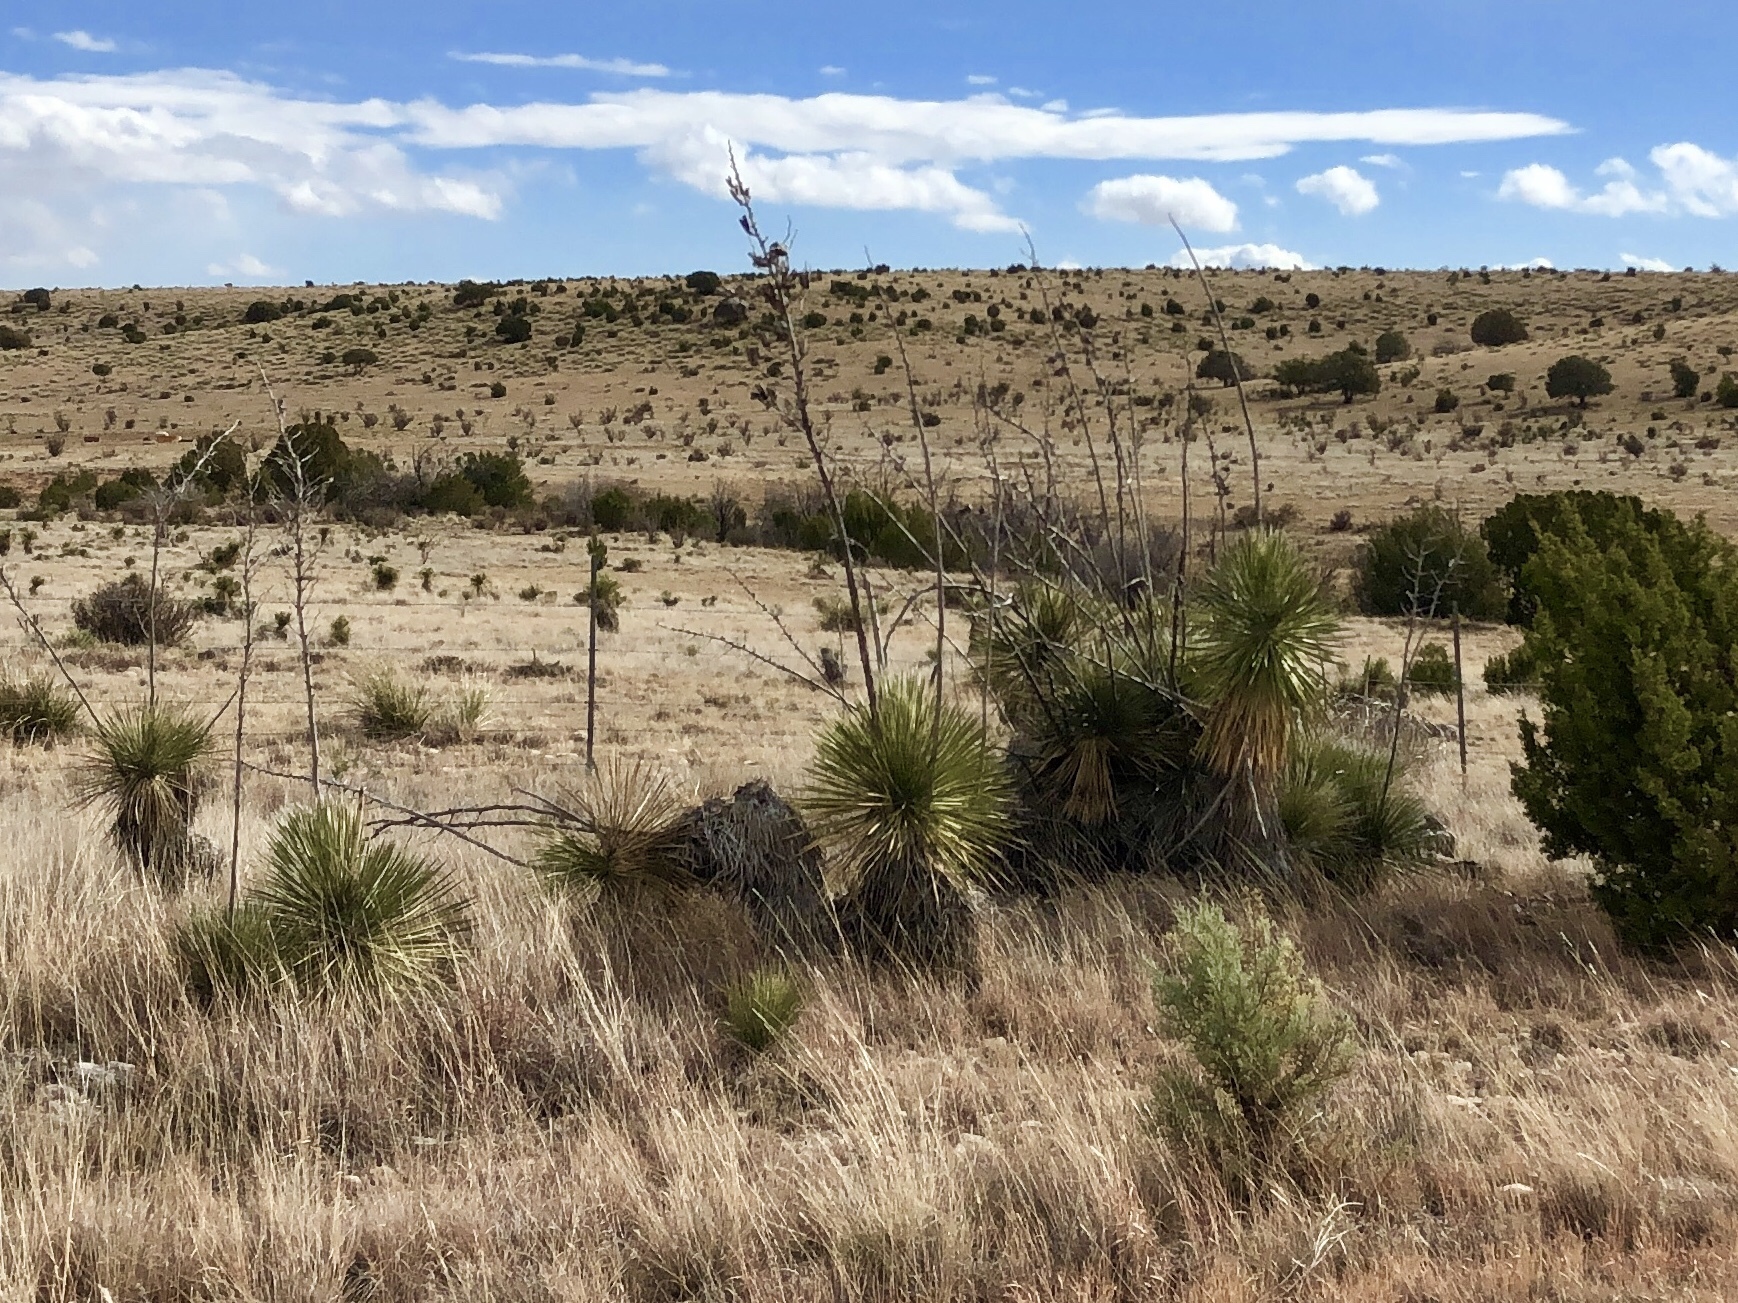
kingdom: Plantae
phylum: Tracheophyta
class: Liliopsida
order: Asparagales
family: Asparagaceae
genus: Yucca
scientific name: Yucca elata
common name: Palmella
